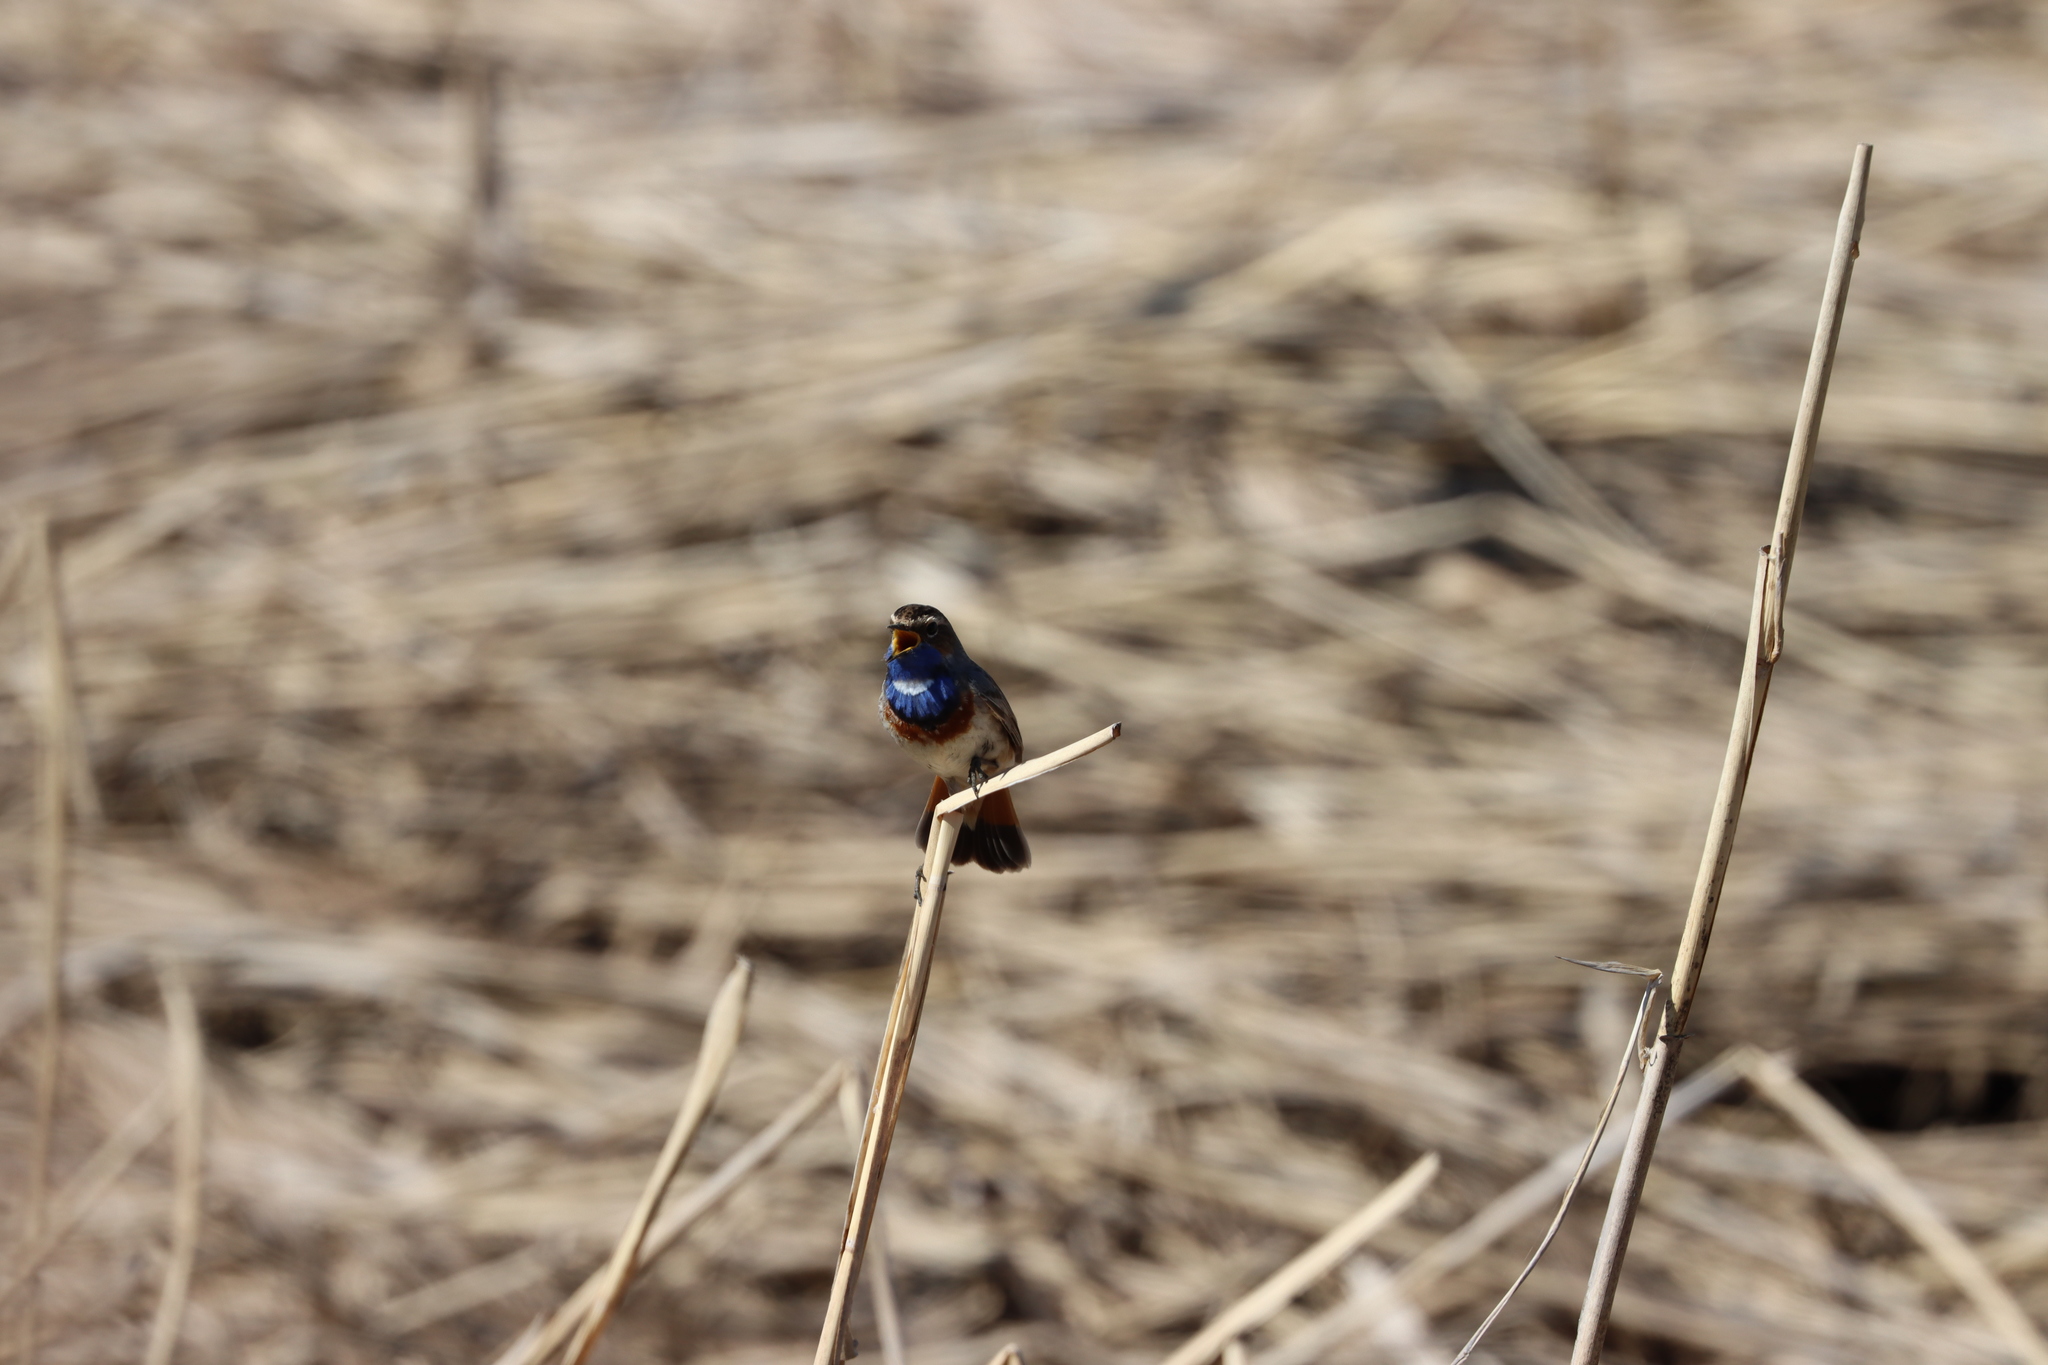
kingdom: Animalia
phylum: Chordata
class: Aves
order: Passeriformes
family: Muscicapidae
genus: Luscinia
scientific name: Luscinia svecica
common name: Bluethroat
